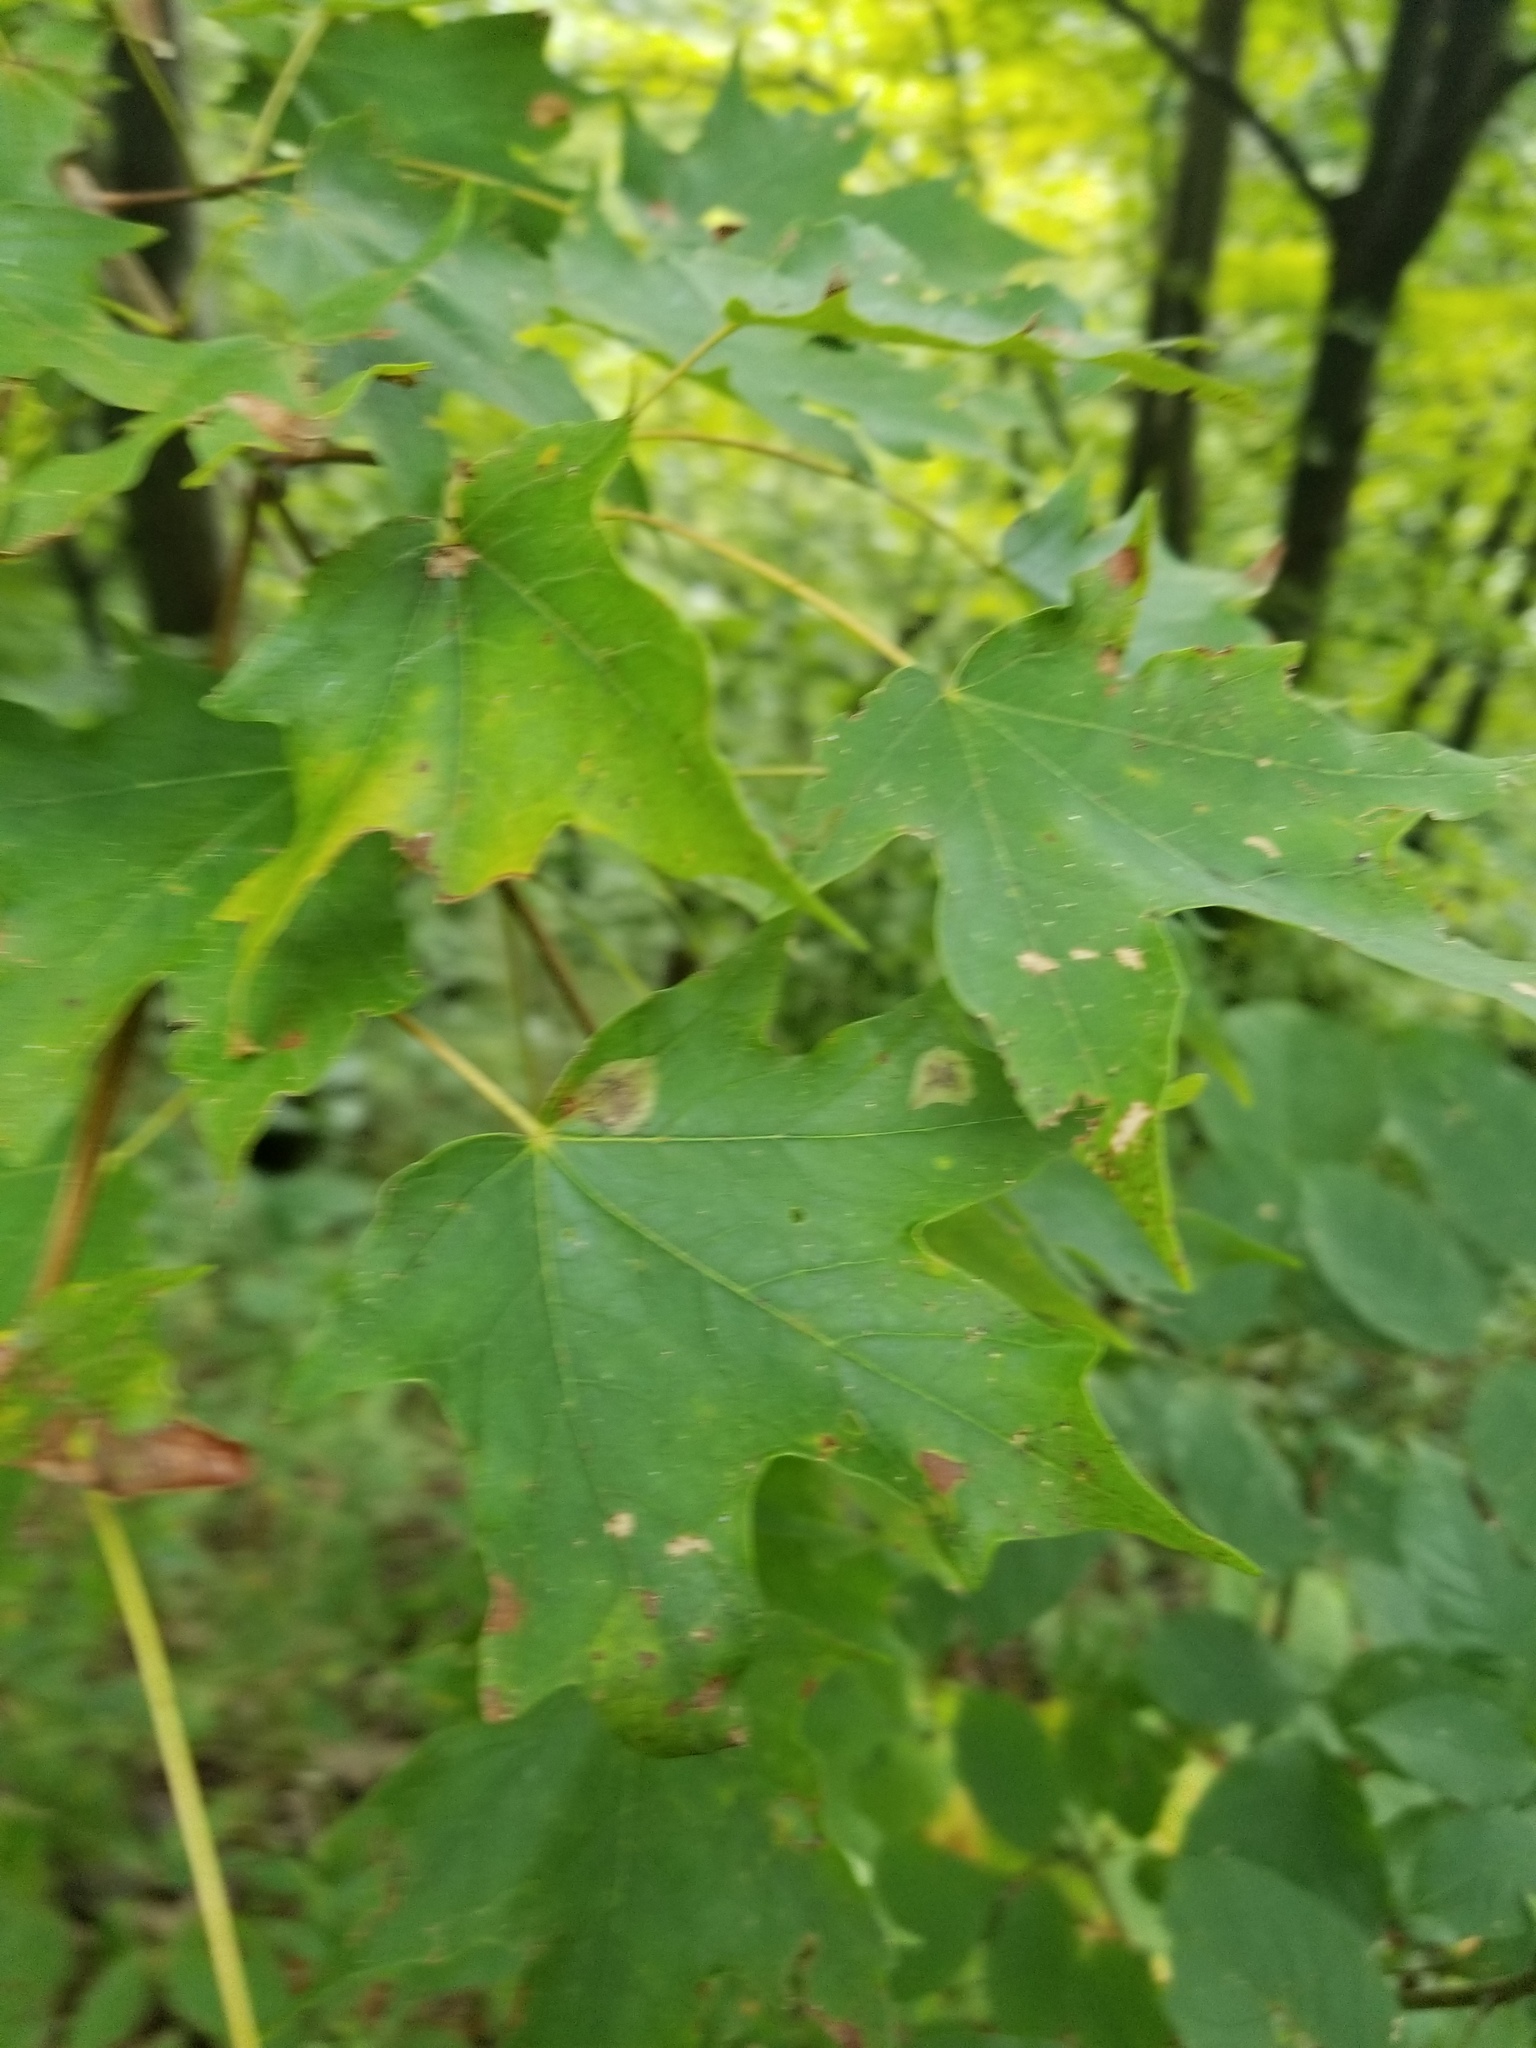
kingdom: Plantae
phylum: Tracheophyta
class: Magnoliopsida
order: Sapindales
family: Sapindaceae
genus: Acer
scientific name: Acer saccharum
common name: Sugar maple
